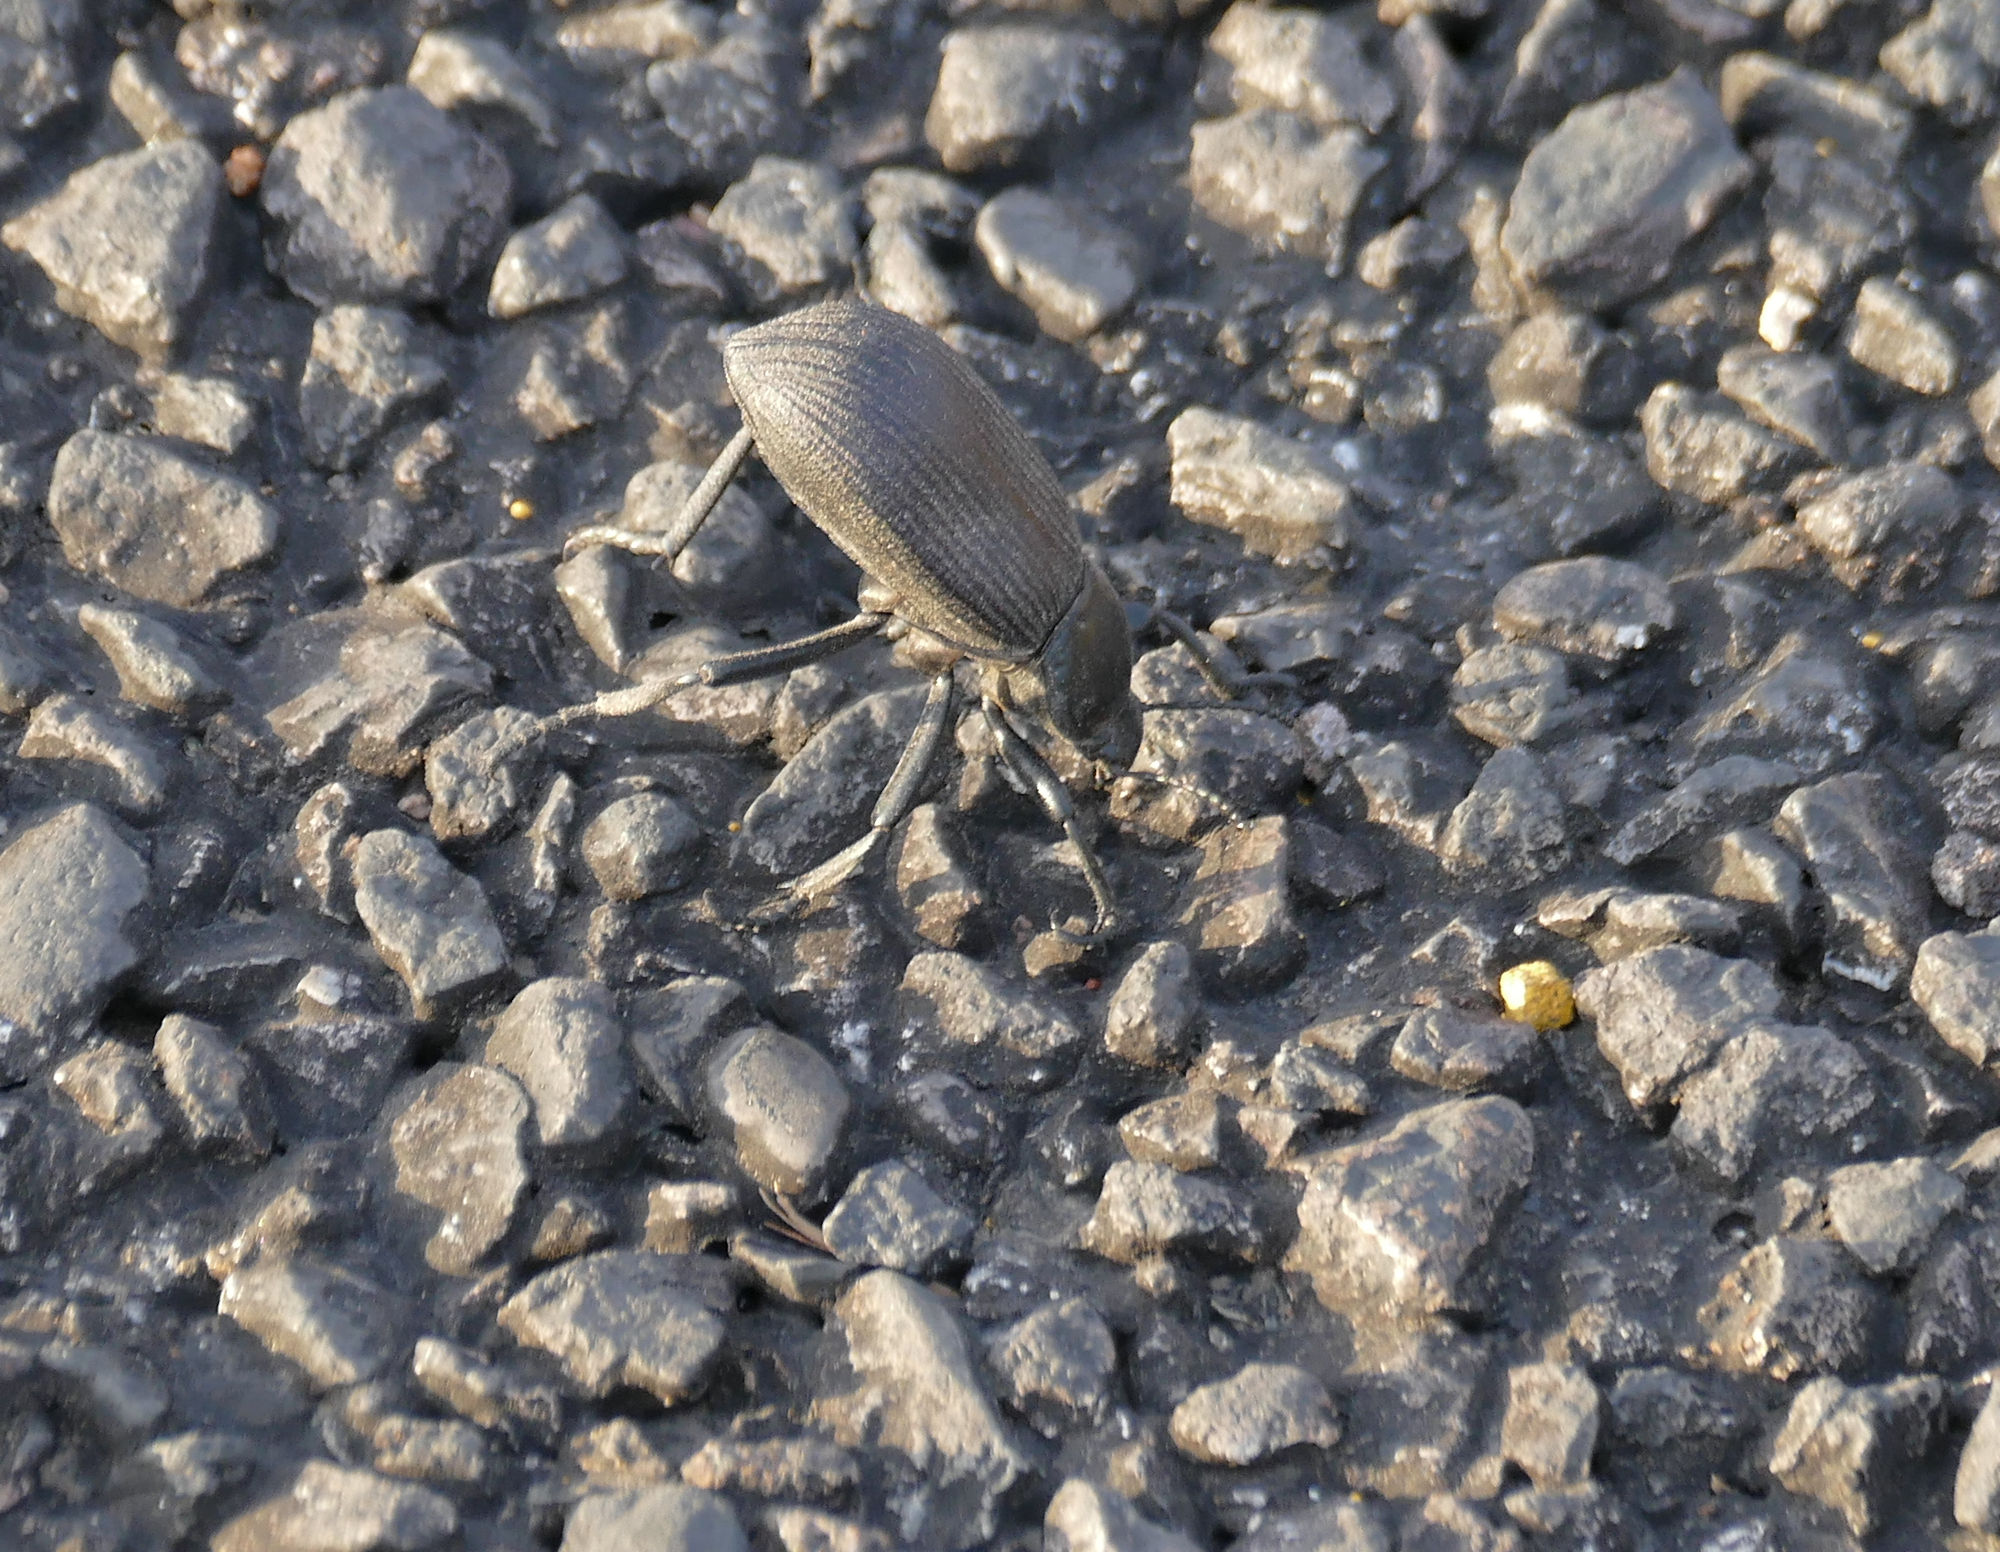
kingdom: Animalia
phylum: Arthropoda
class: Insecta
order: Coleoptera
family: Tenebrionidae
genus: Eleodes
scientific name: Eleodes obscura
